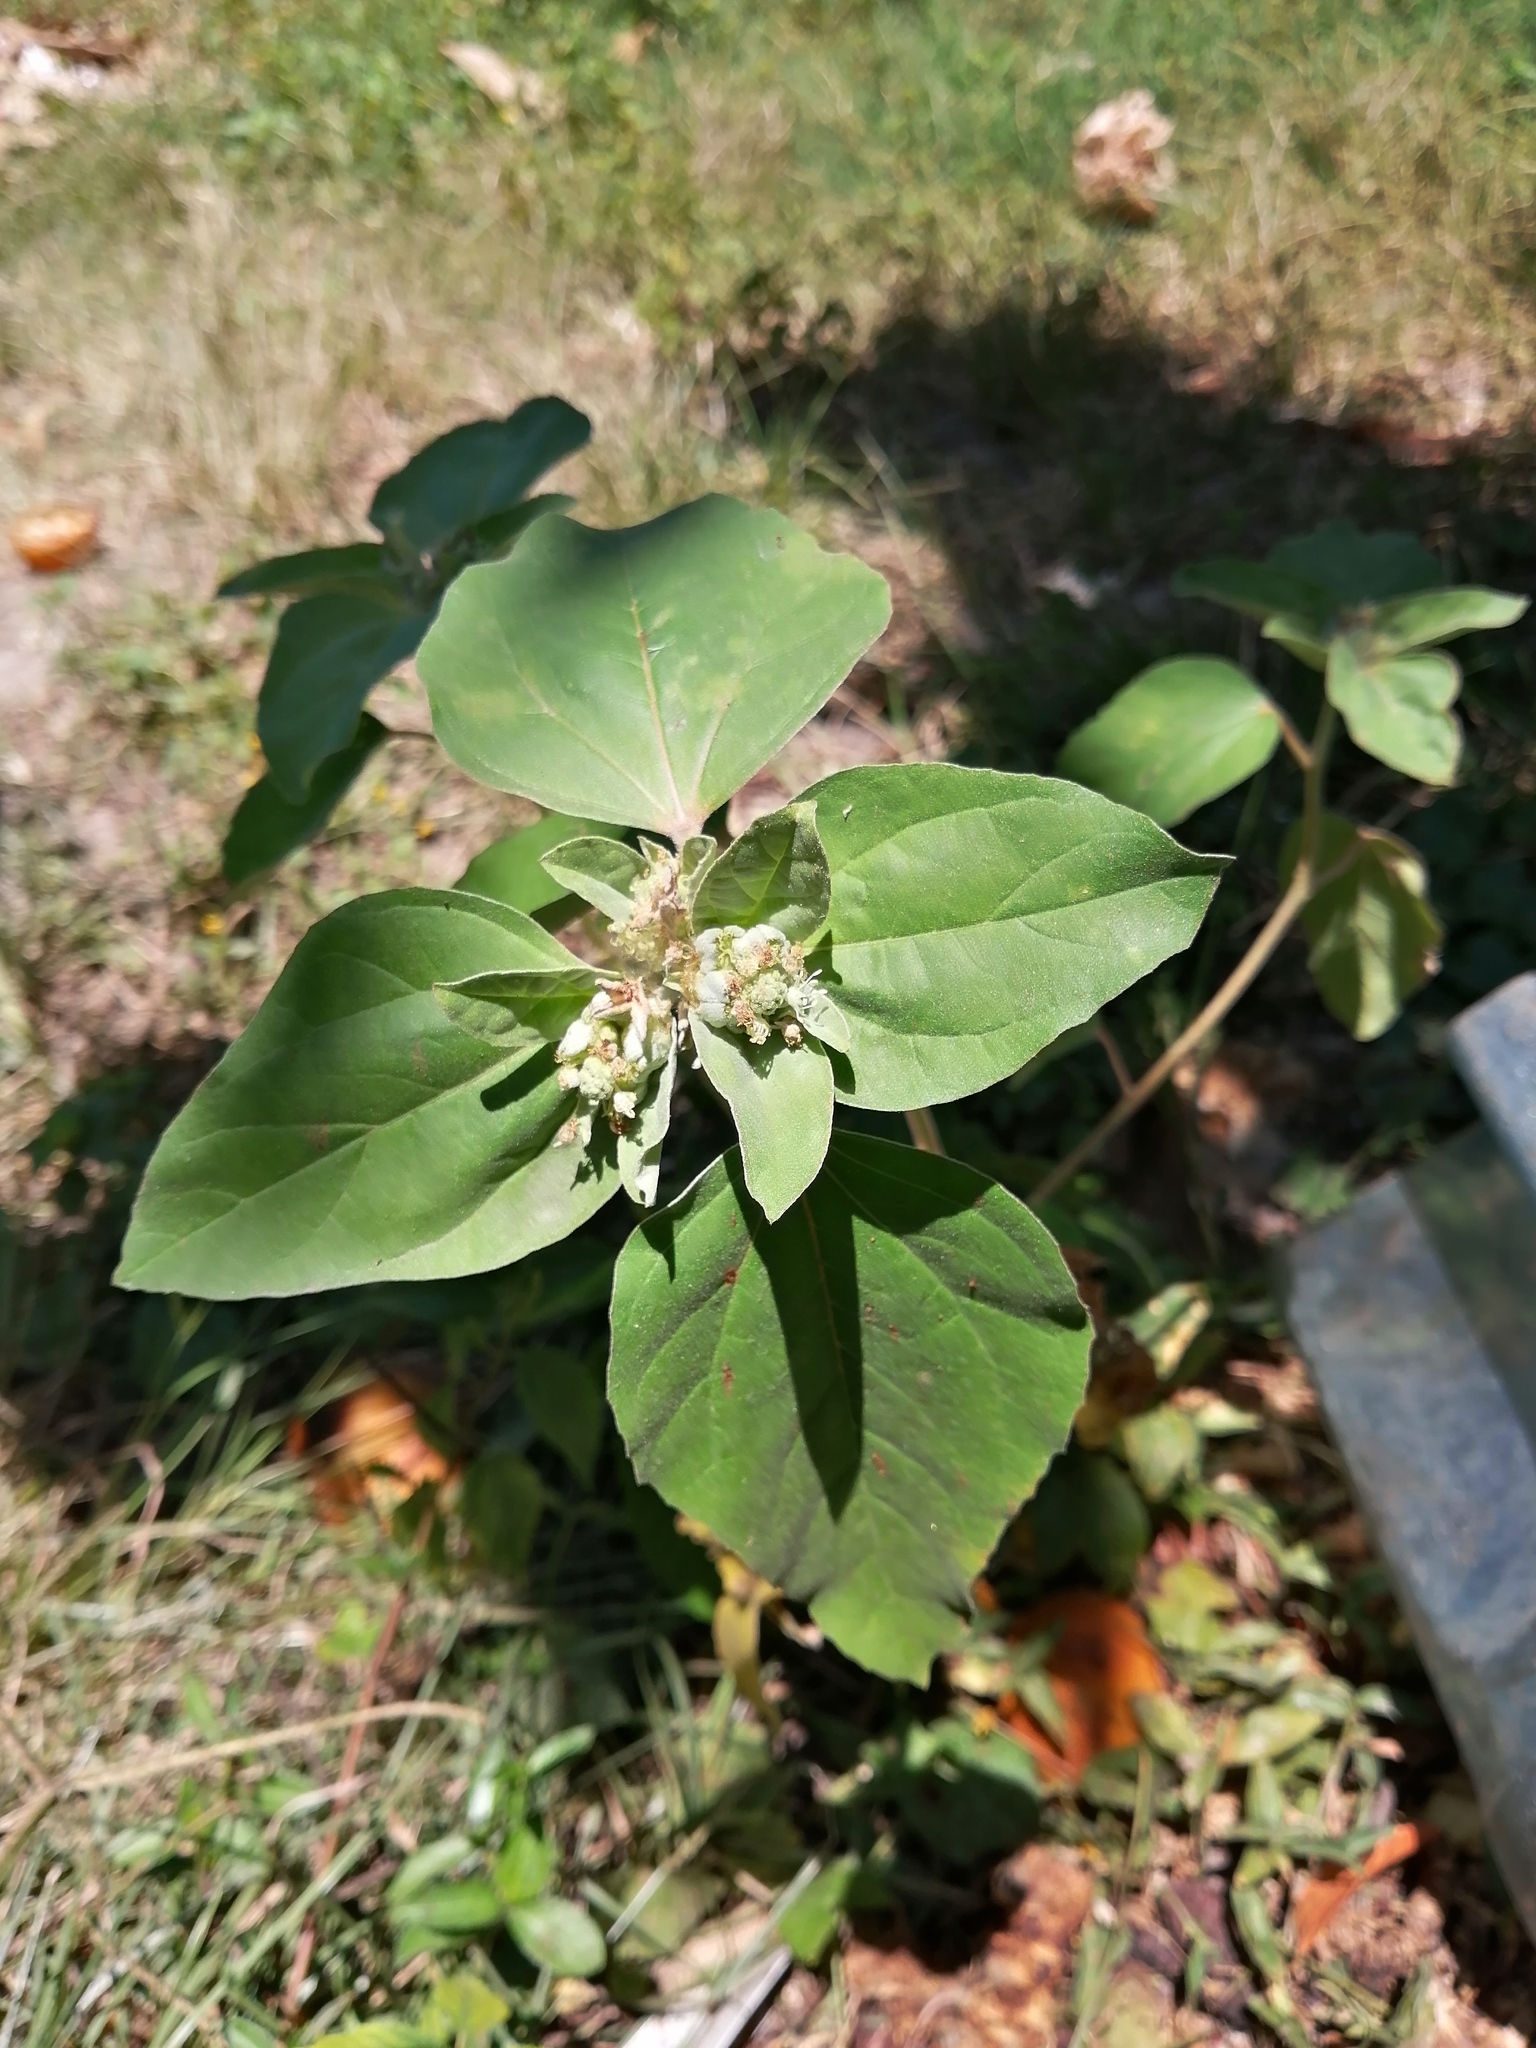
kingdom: Plantae
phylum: Tracheophyta
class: Magnoliopsida
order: Malpighiales
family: Euphorbiaceae
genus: Croton
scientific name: Croton argenteus
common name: Silver july croton
